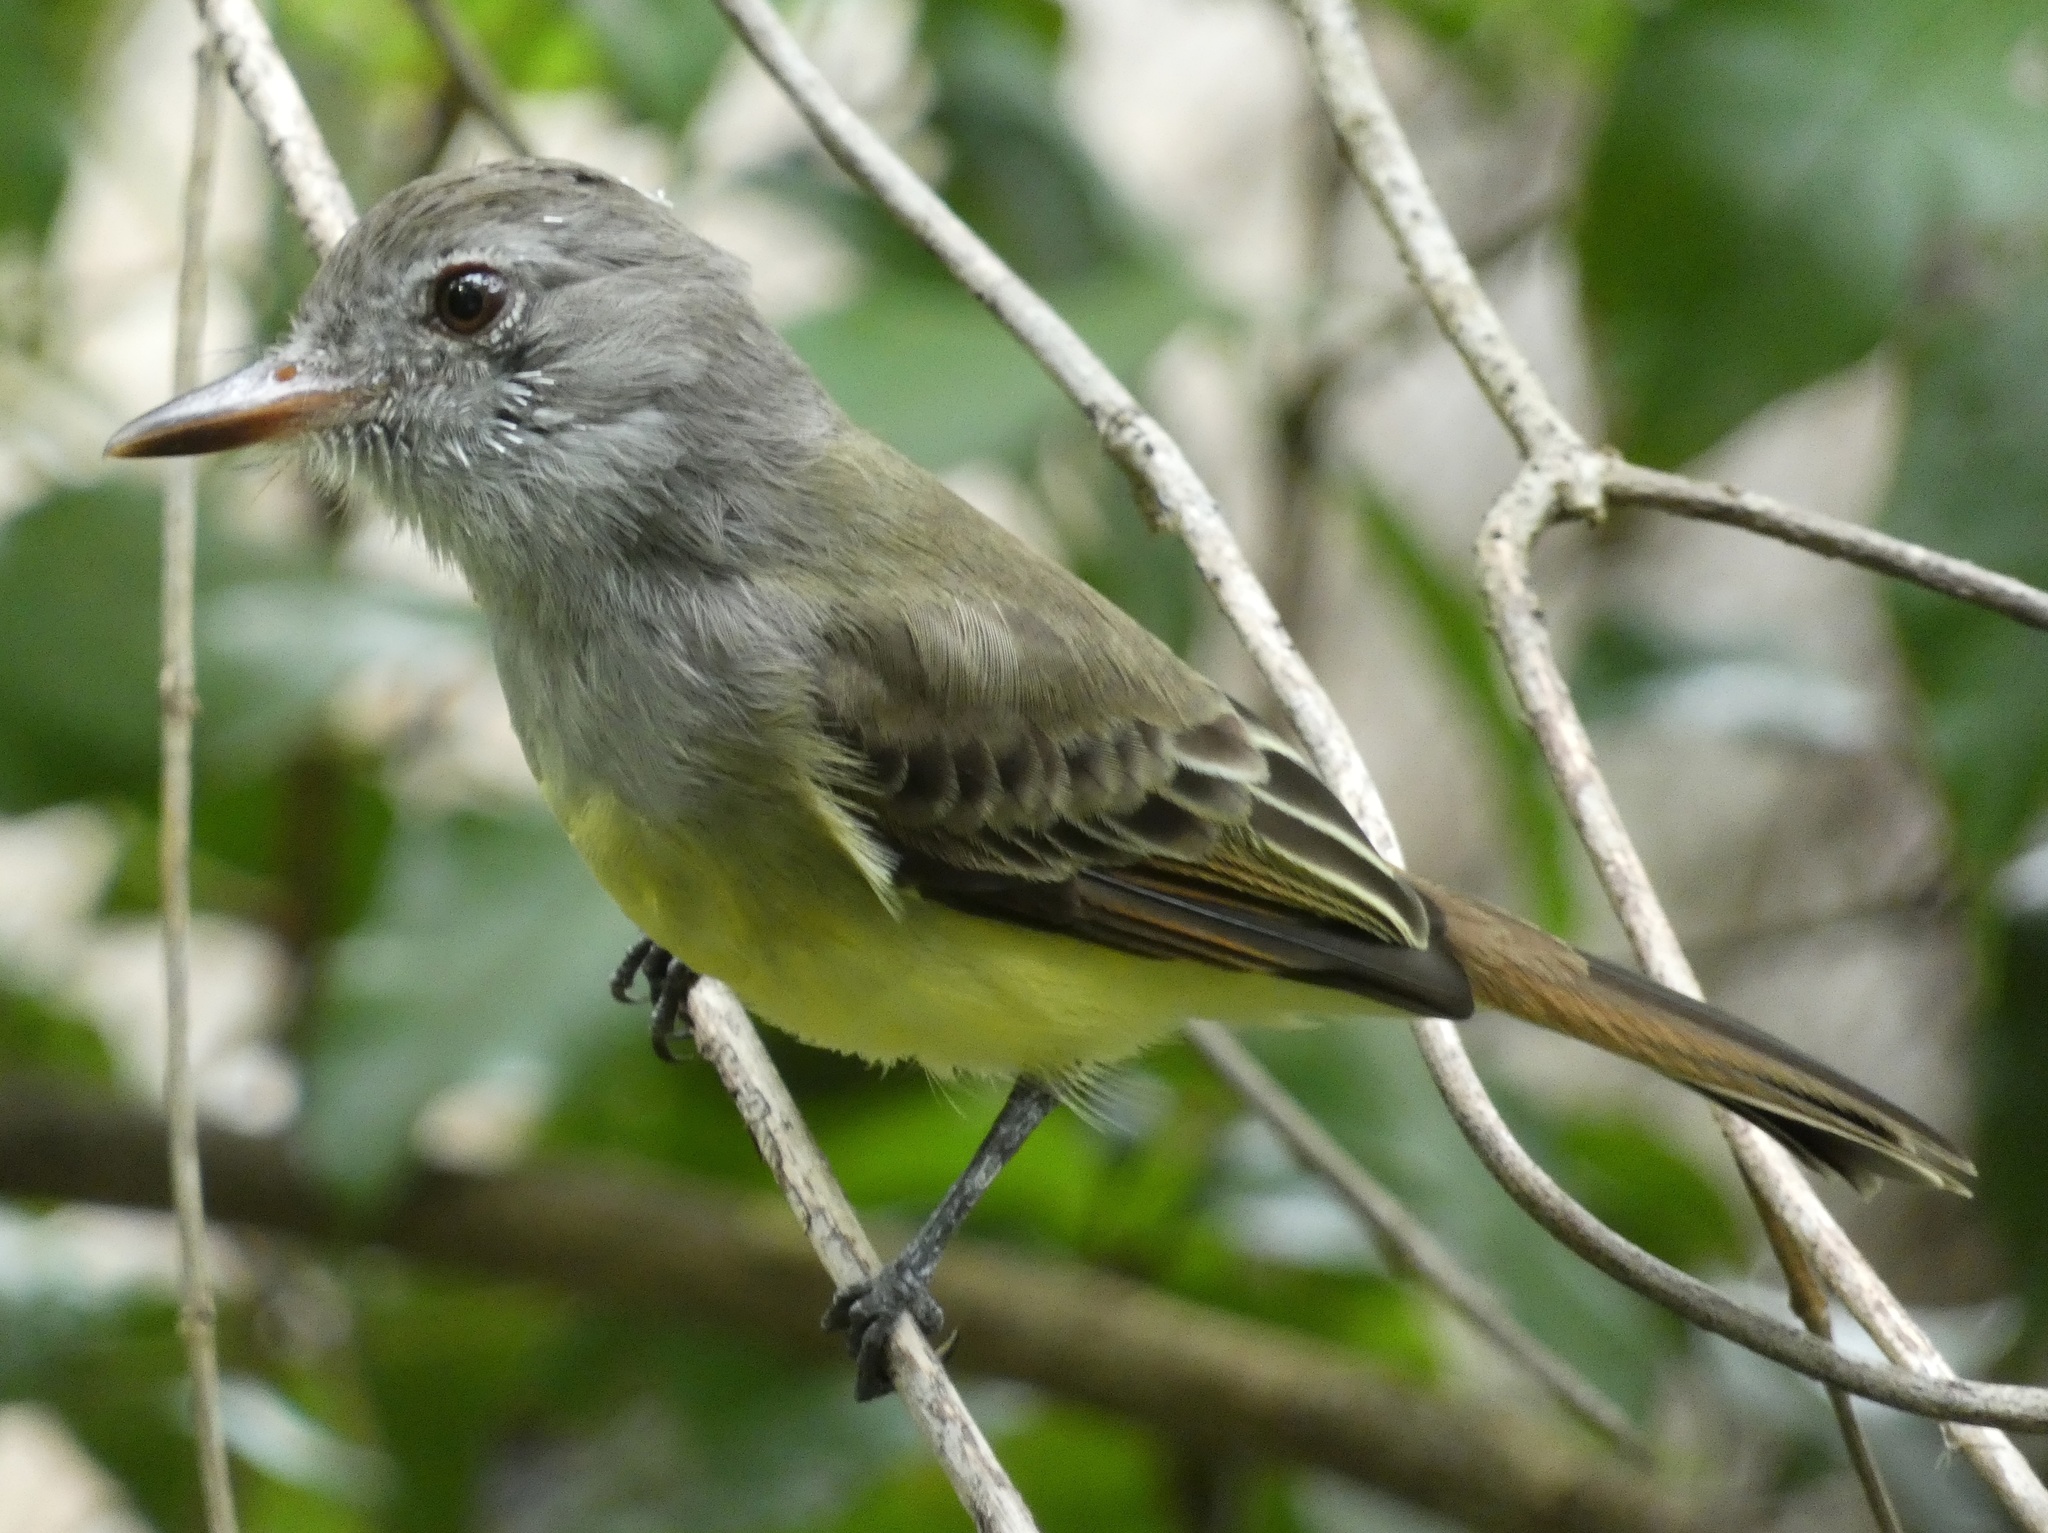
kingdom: Animalia
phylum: Chordata
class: Aves
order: Passeriformes
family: Tyrannidae
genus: Myiarchus
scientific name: Myiarchus panamensis
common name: Panama flycatcher
